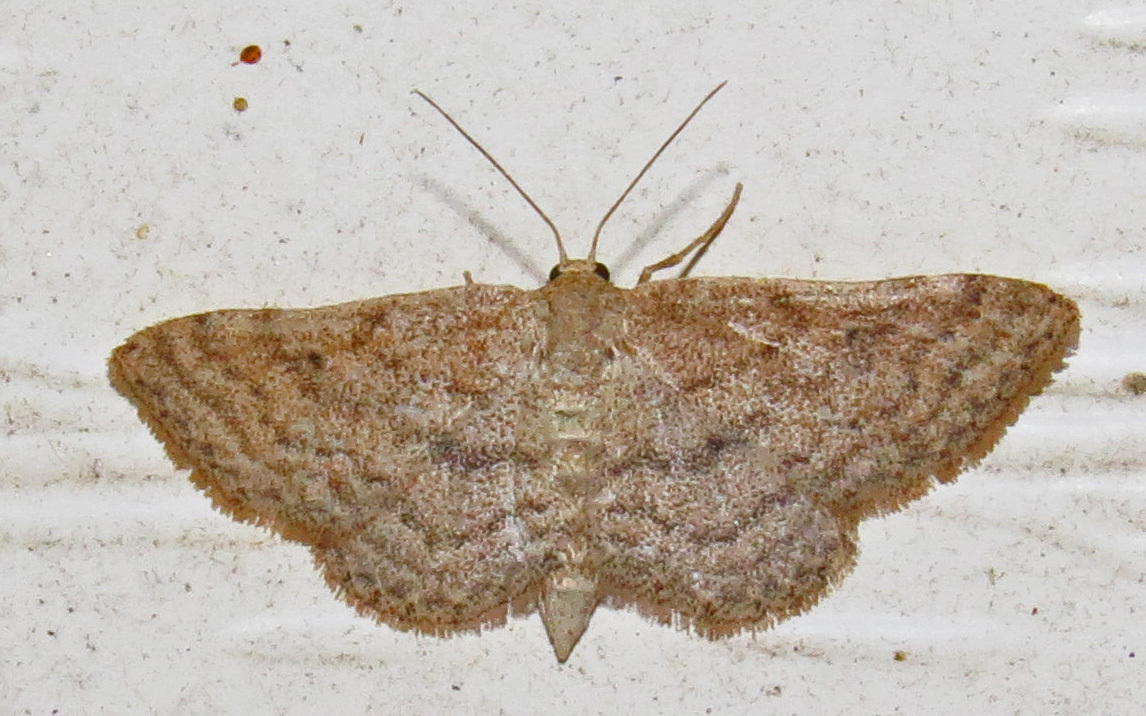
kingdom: Animalia
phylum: Arthropoda
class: Insecta
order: Lepidoptera
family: Geometridae
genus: Lobocleta
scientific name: Lobocleta ossularia
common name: Drab brown wave
